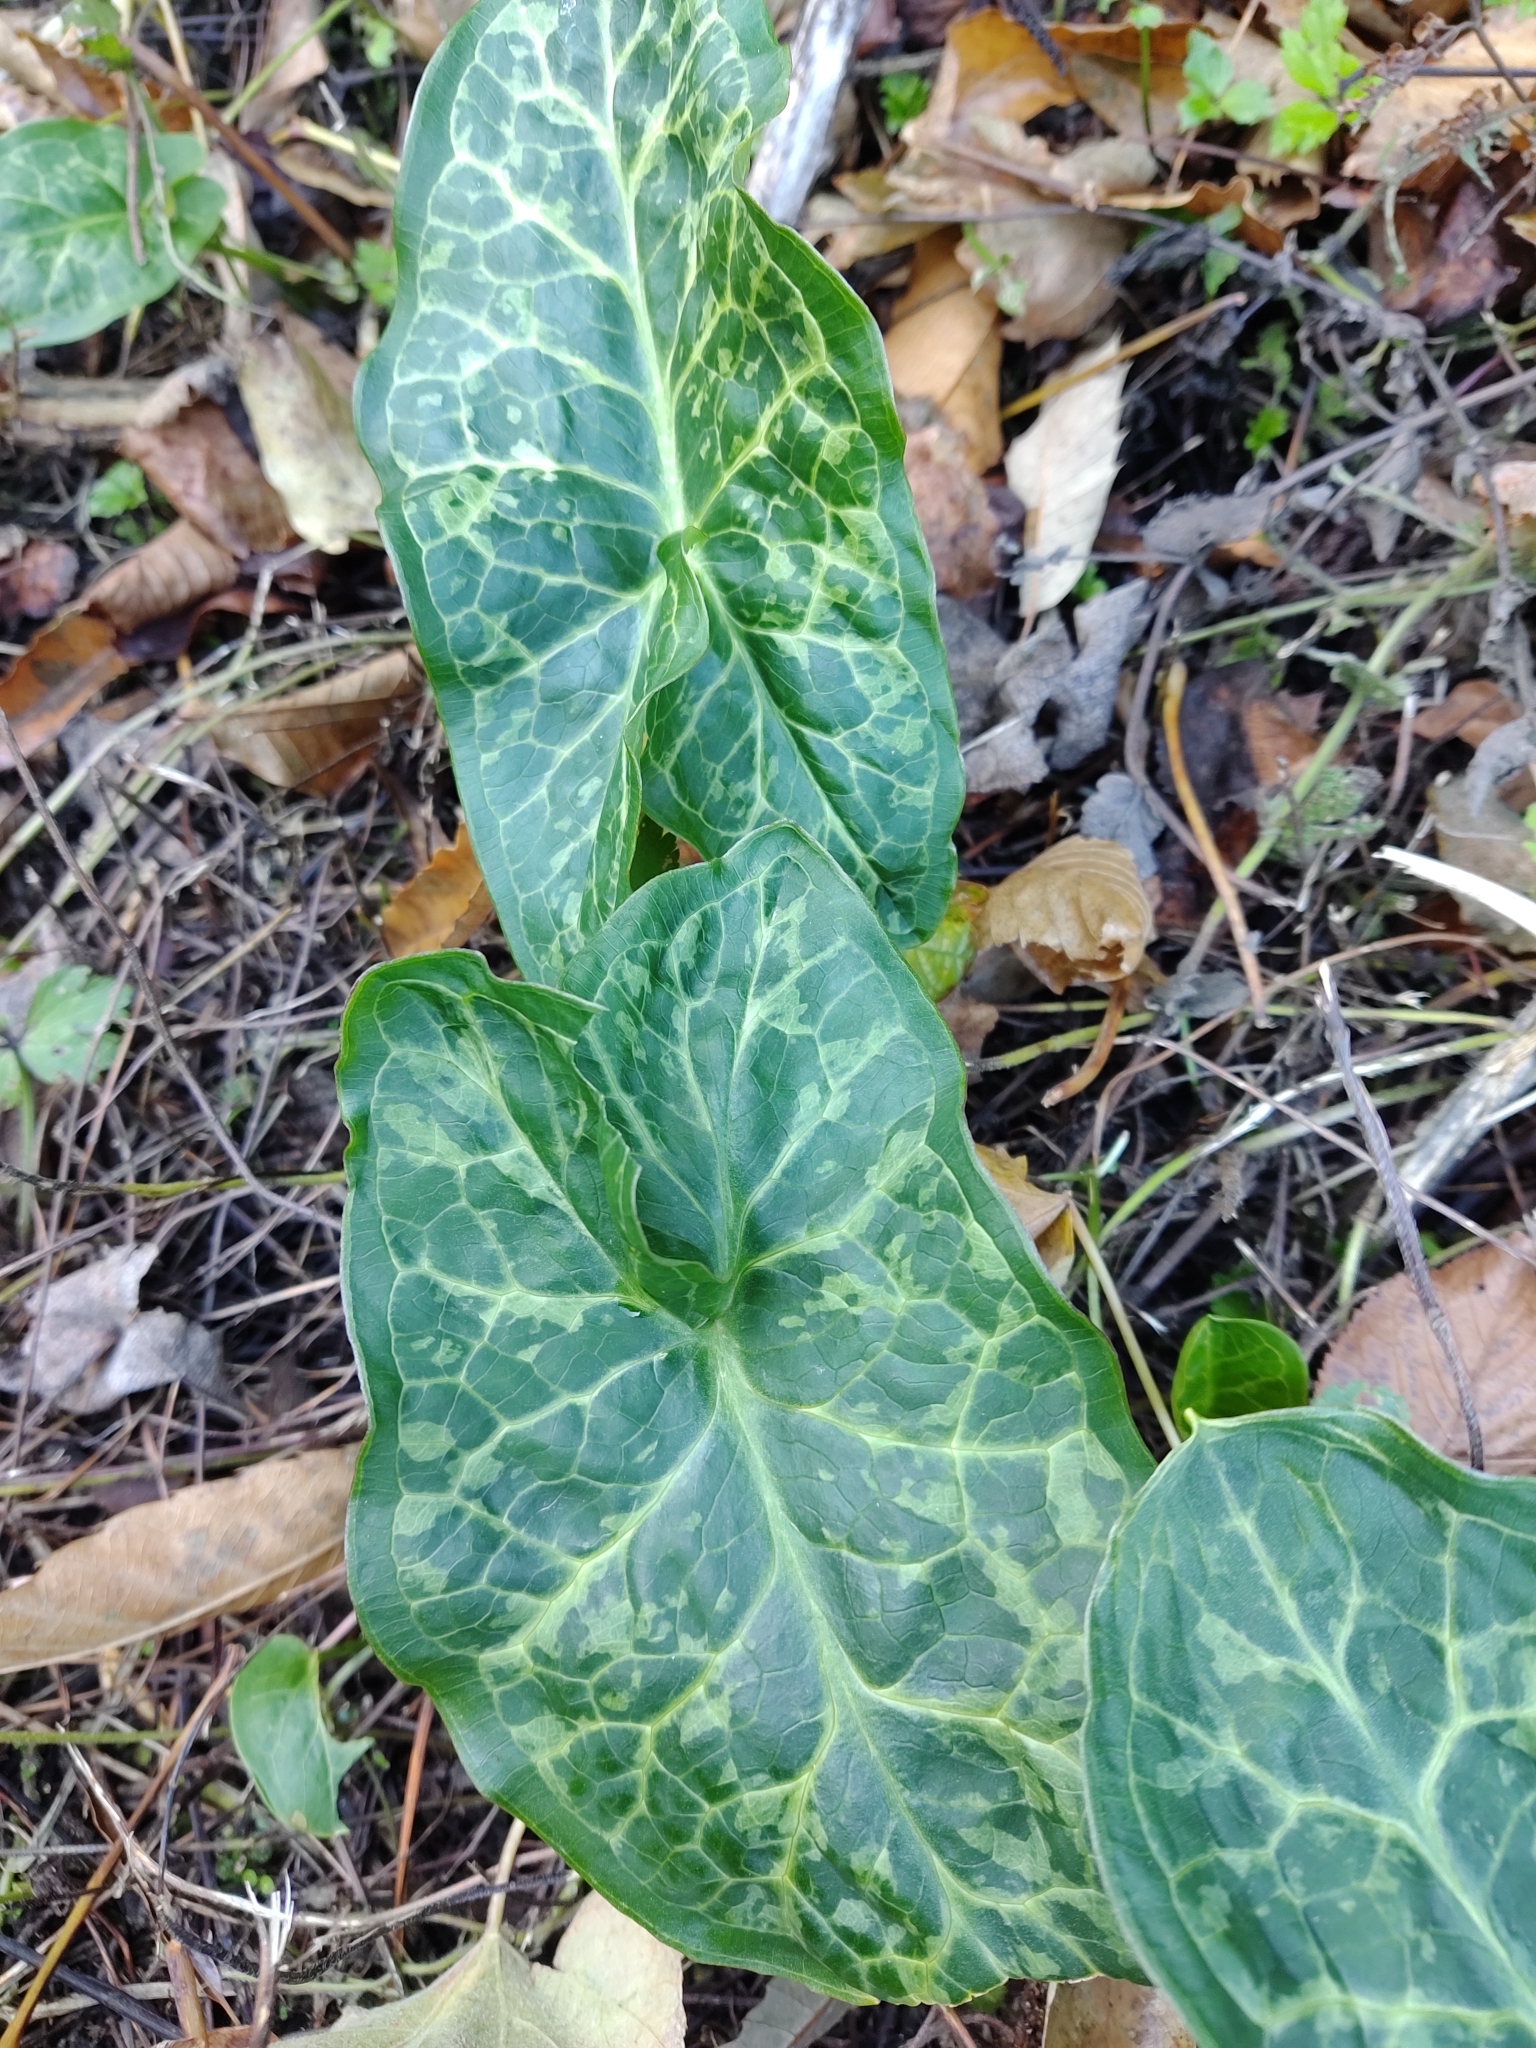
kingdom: Plantae
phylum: Tracheophyta
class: Liliopsida
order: Alismatales
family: Araceae
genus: Arum
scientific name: Arum italicum
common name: Italian lords-and-ladies
